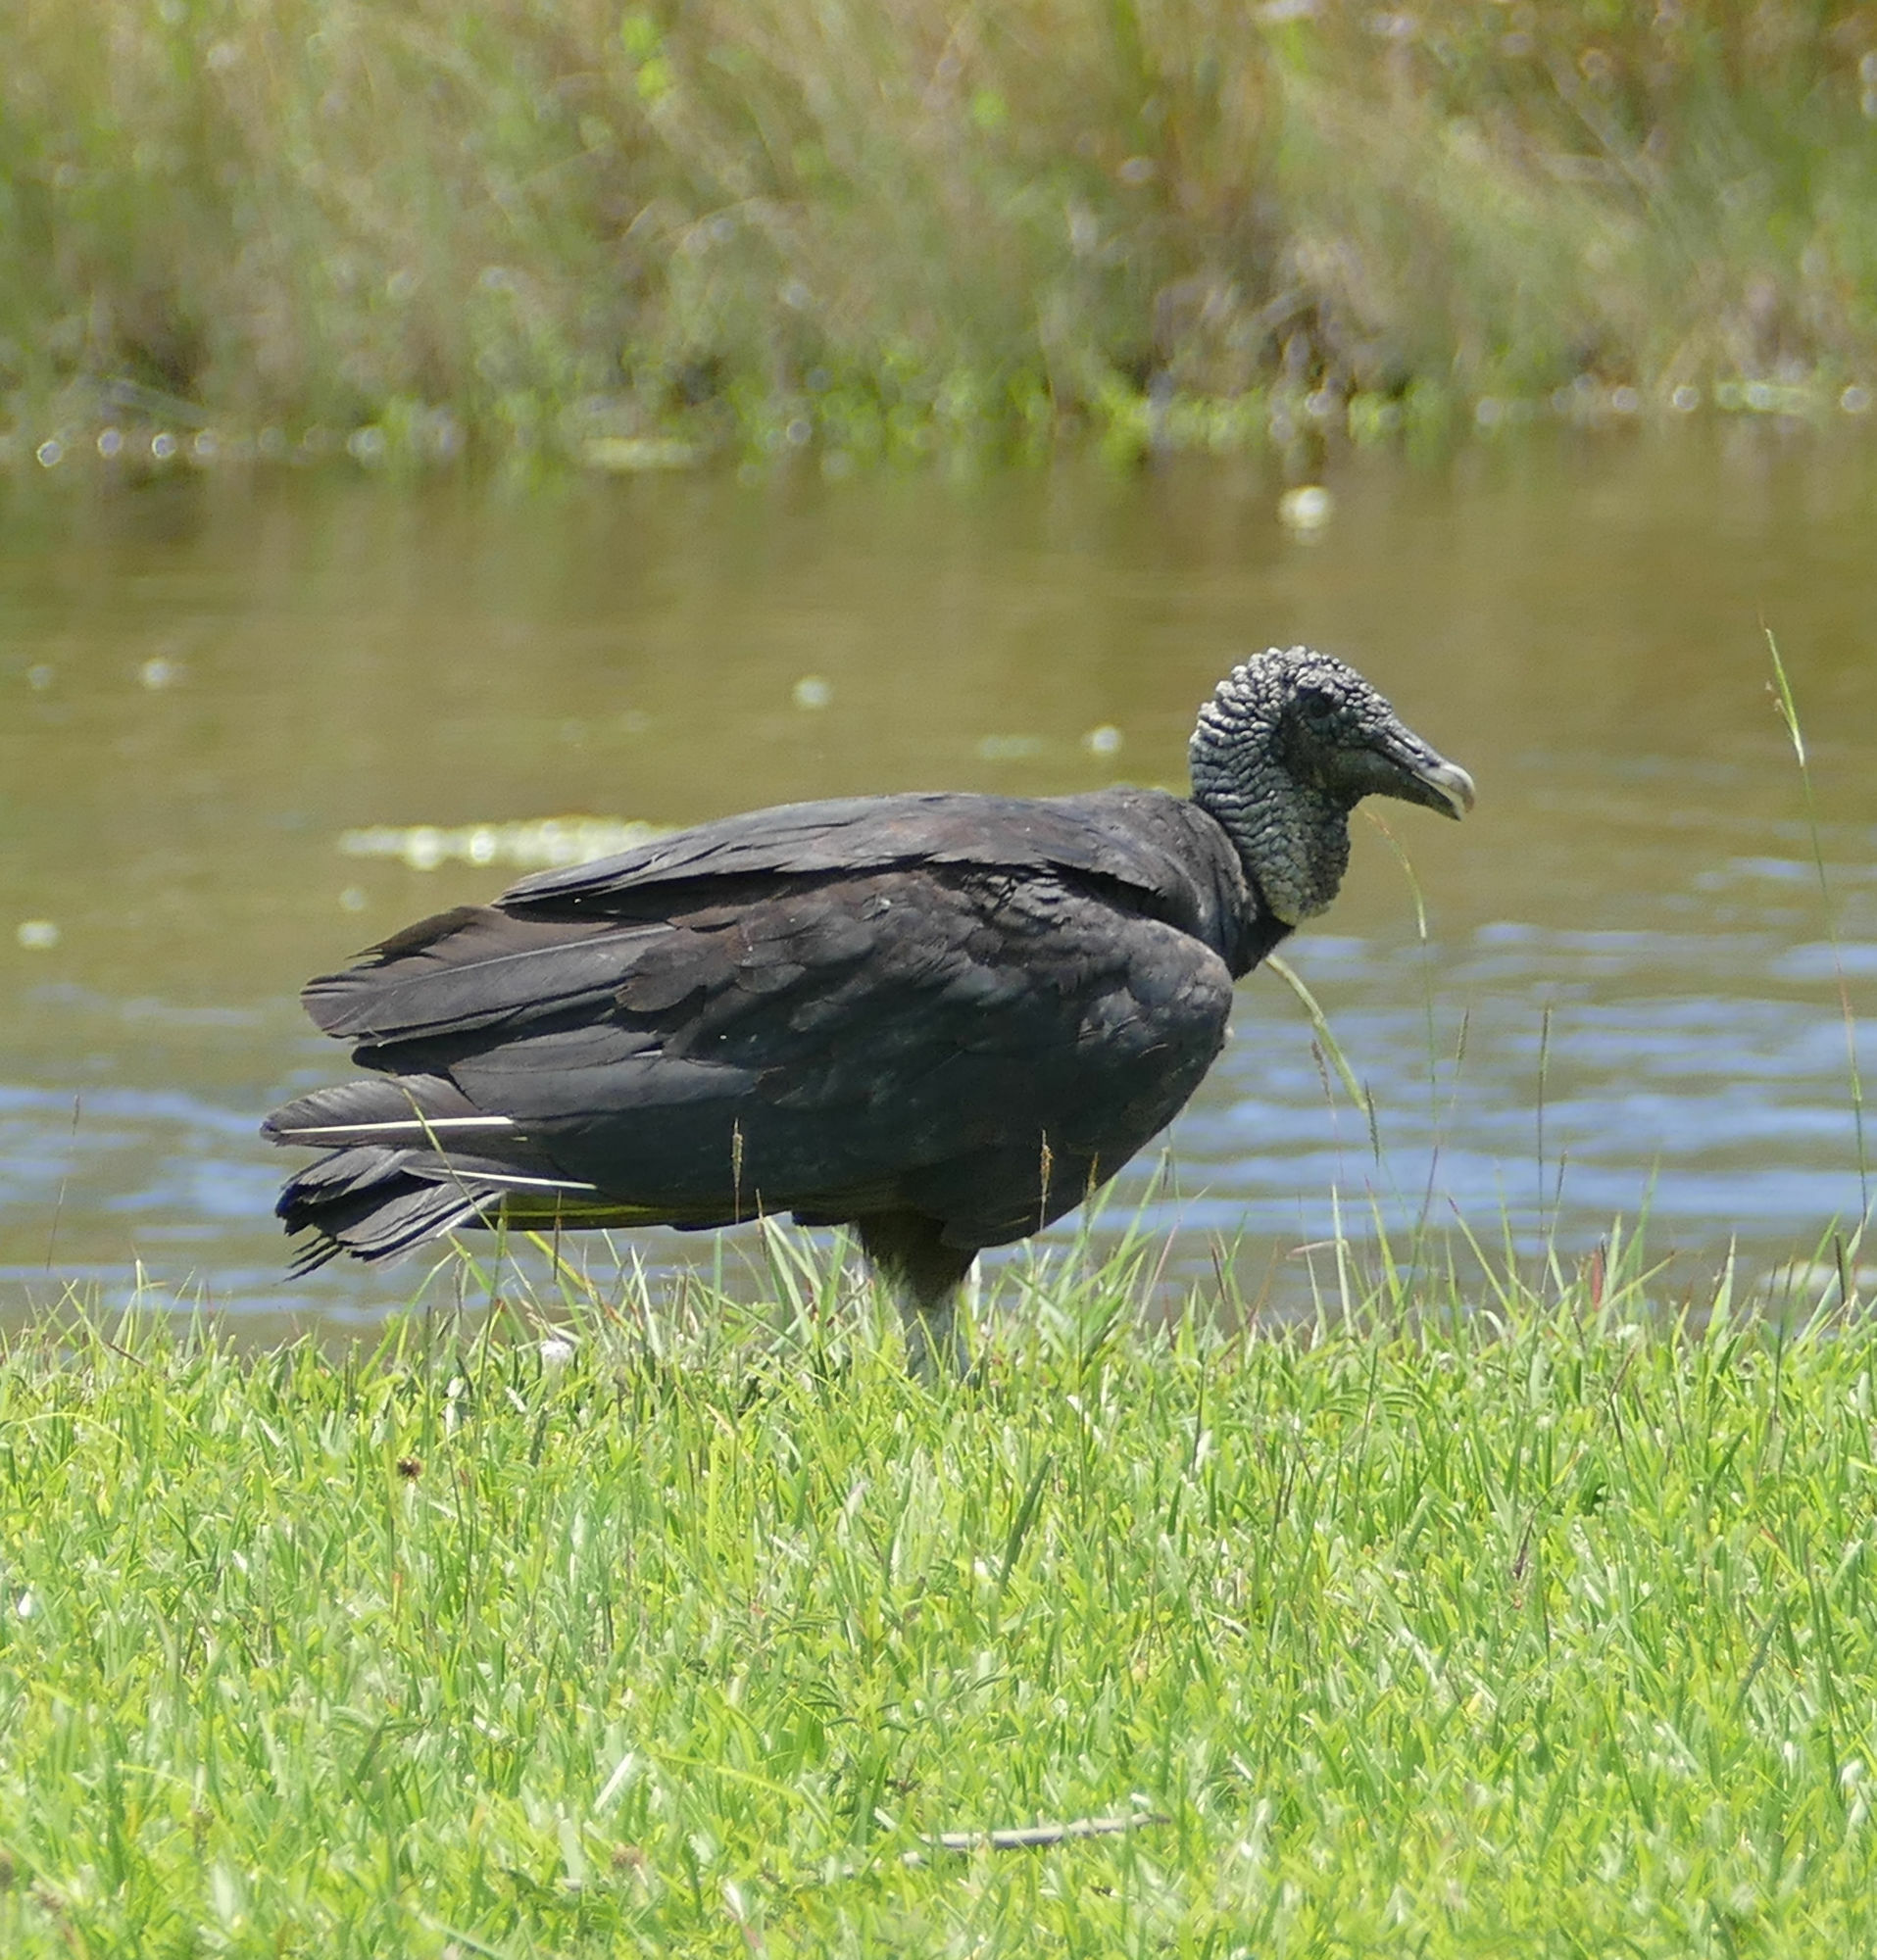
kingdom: Animalia
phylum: Chordata
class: Aves
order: Accipitriformes
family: Cathartidae
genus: Coragyps
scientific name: Coragyps atratus
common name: Black vulture
